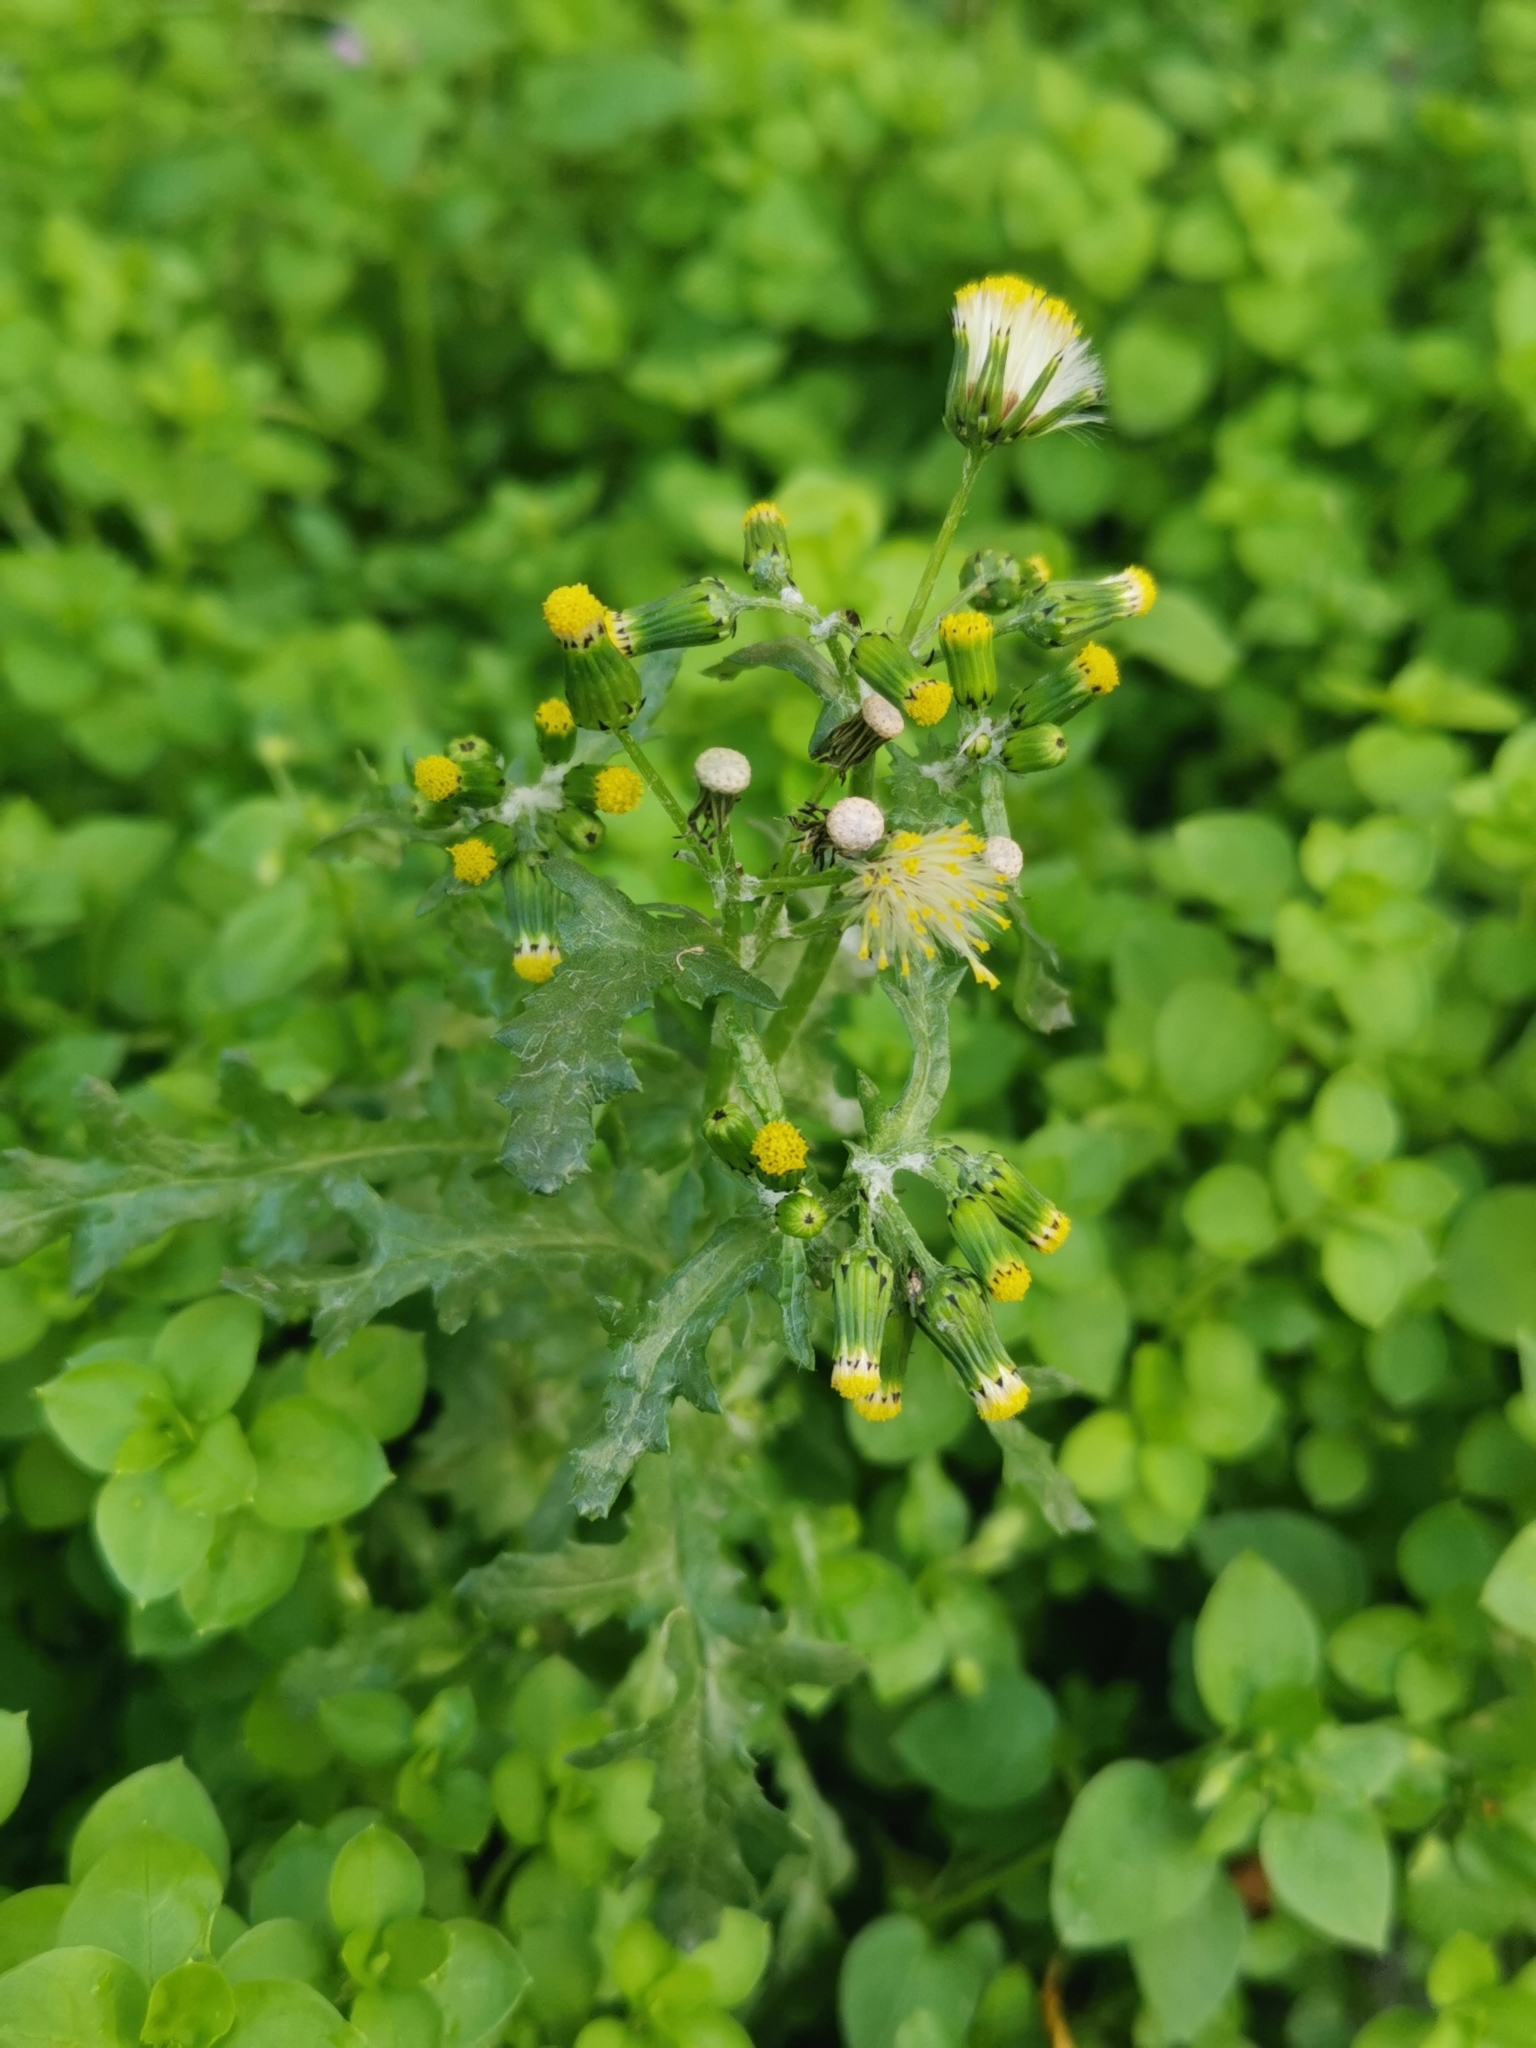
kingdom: Plantae
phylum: Tracheophyta
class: Magnoliopsida
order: Asterales
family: Asteraceae
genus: Senecio
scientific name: Senecio vulgaris
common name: Old-man-in-the-spring
